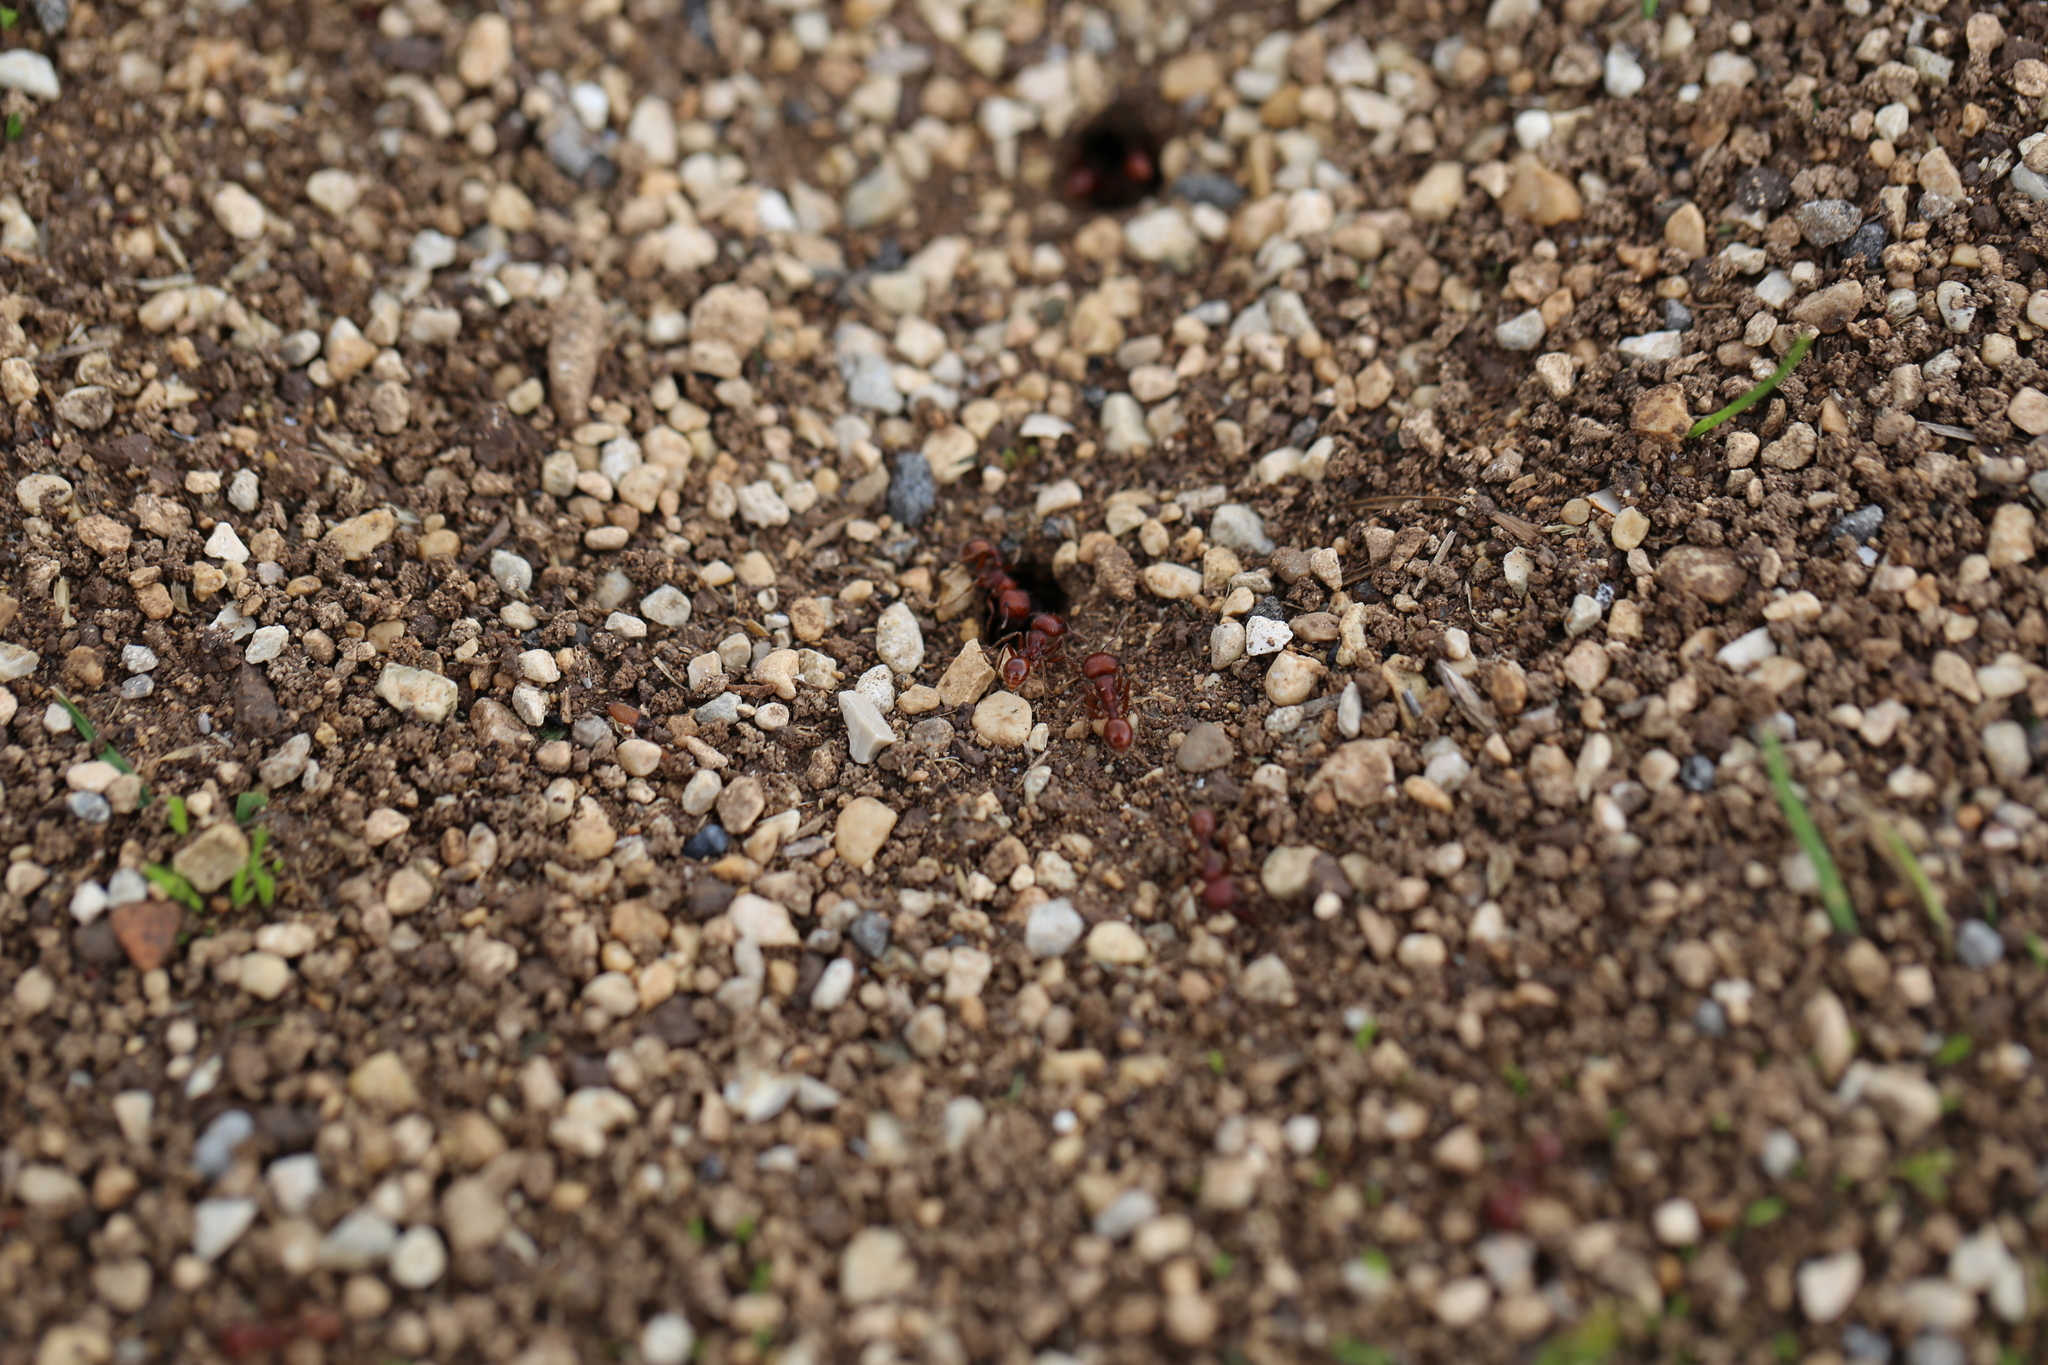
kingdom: Animalia
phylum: Arthropoda
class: Insecta
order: Hymenoptera
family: Formicidae
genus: Pogonomyrmex
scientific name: Pogonomyrmex barbatus
